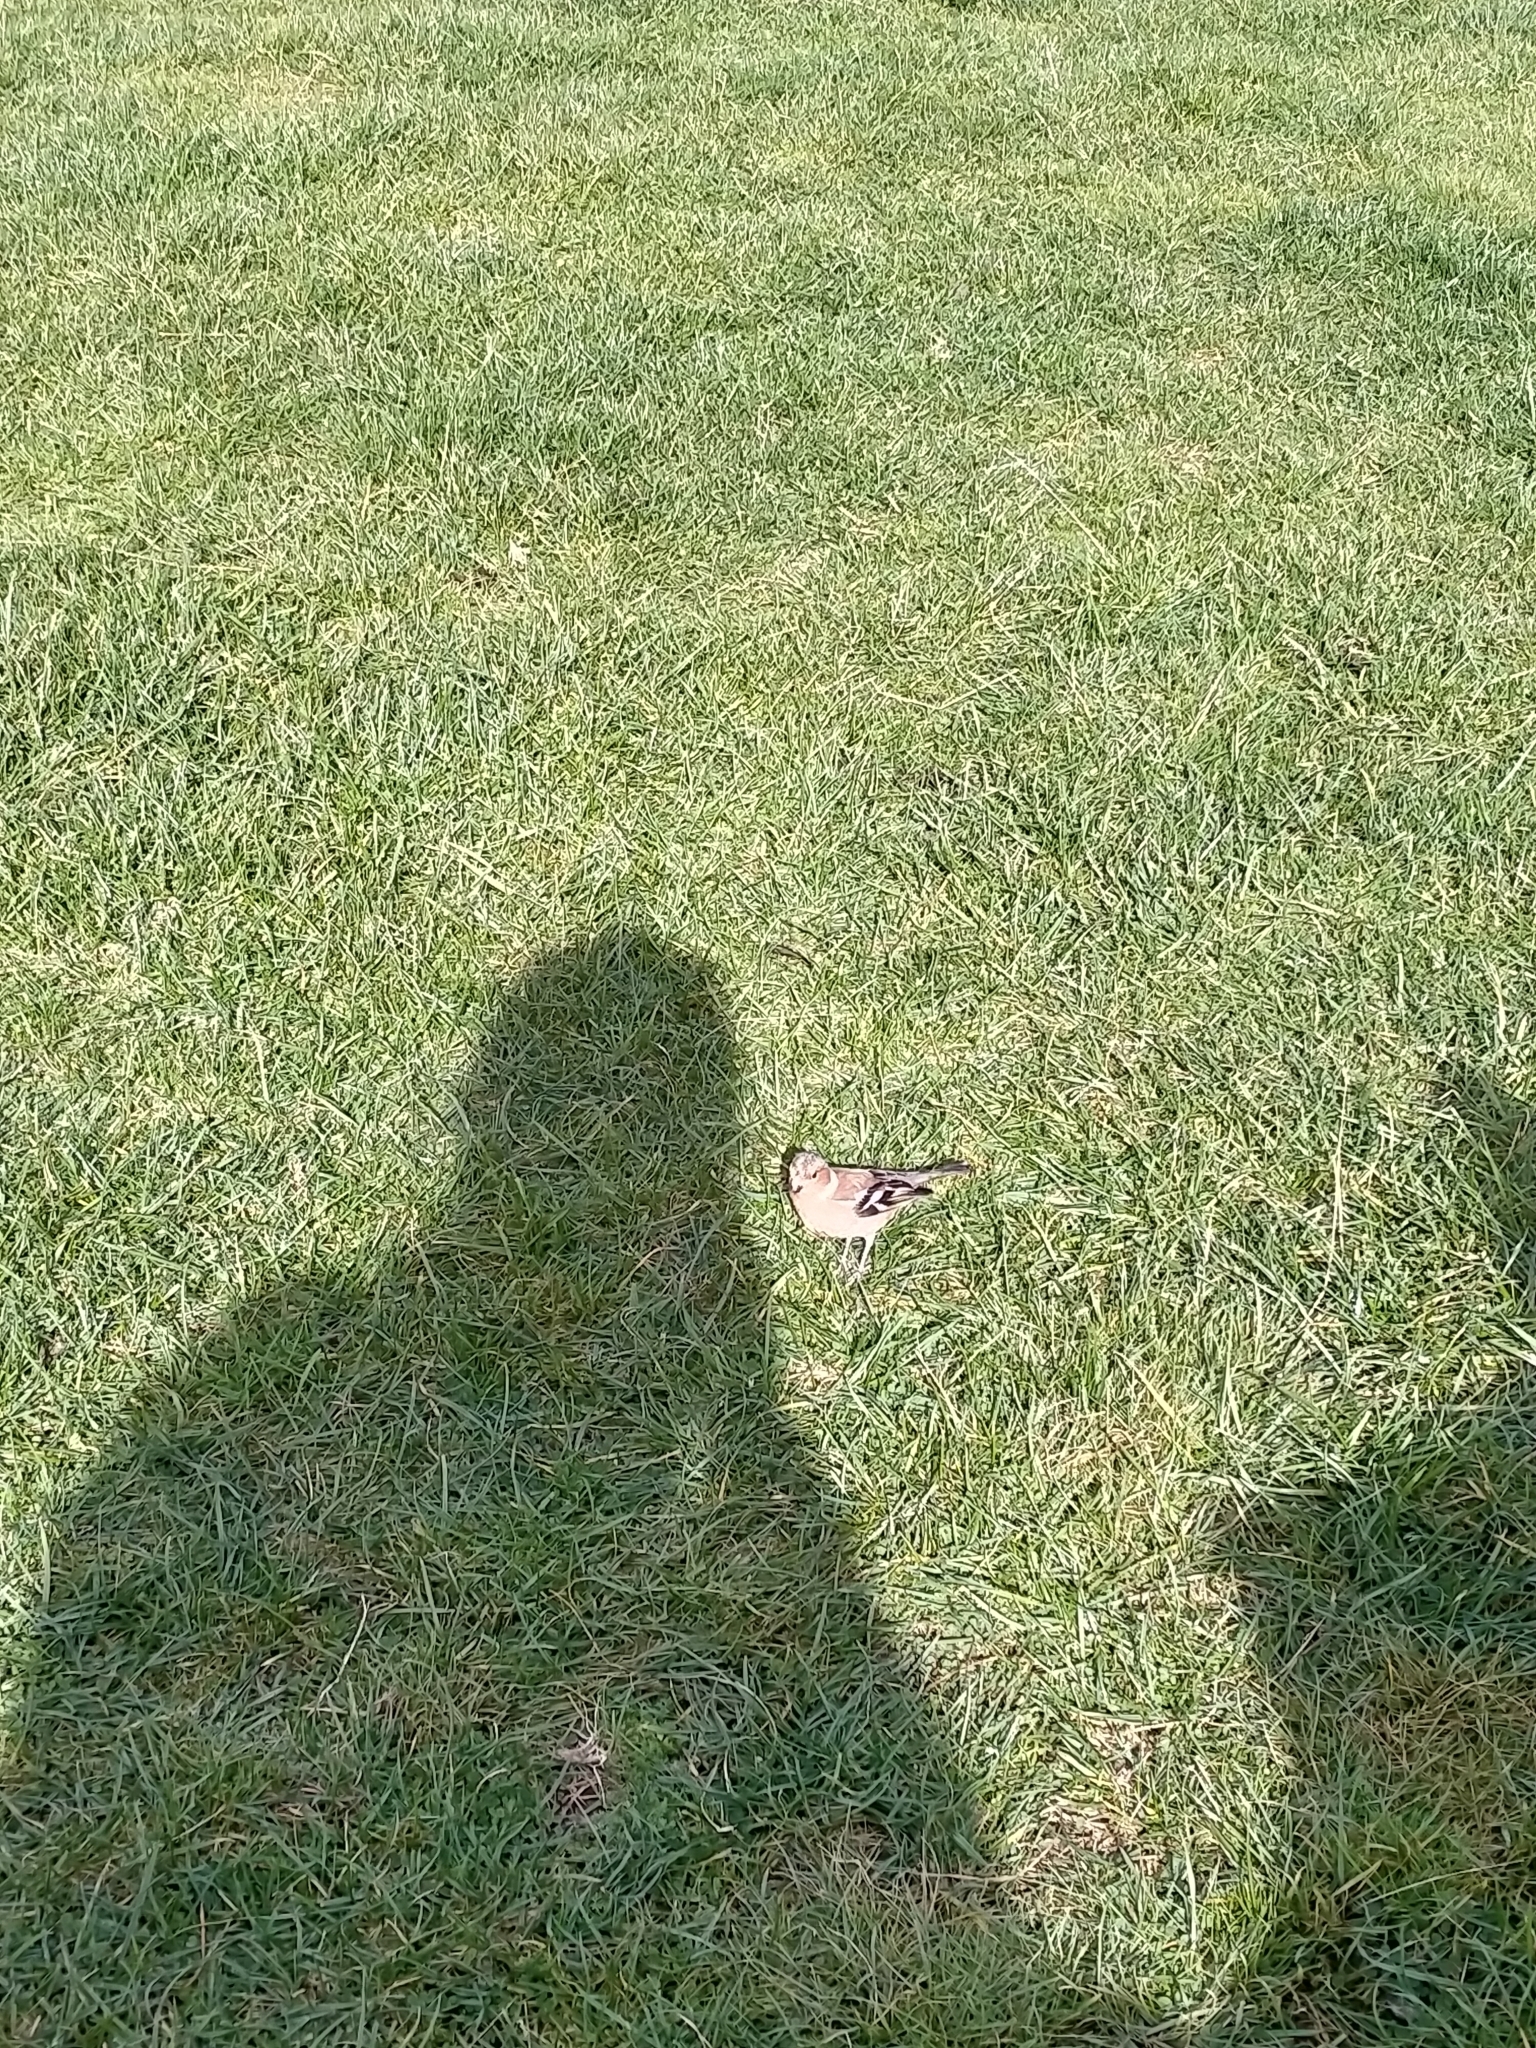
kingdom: Animalia
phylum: Chordata
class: Aves
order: Passeriformes
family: Fringillidae
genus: Fringilla
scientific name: Fringilla coelebs
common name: Common chaffinch
